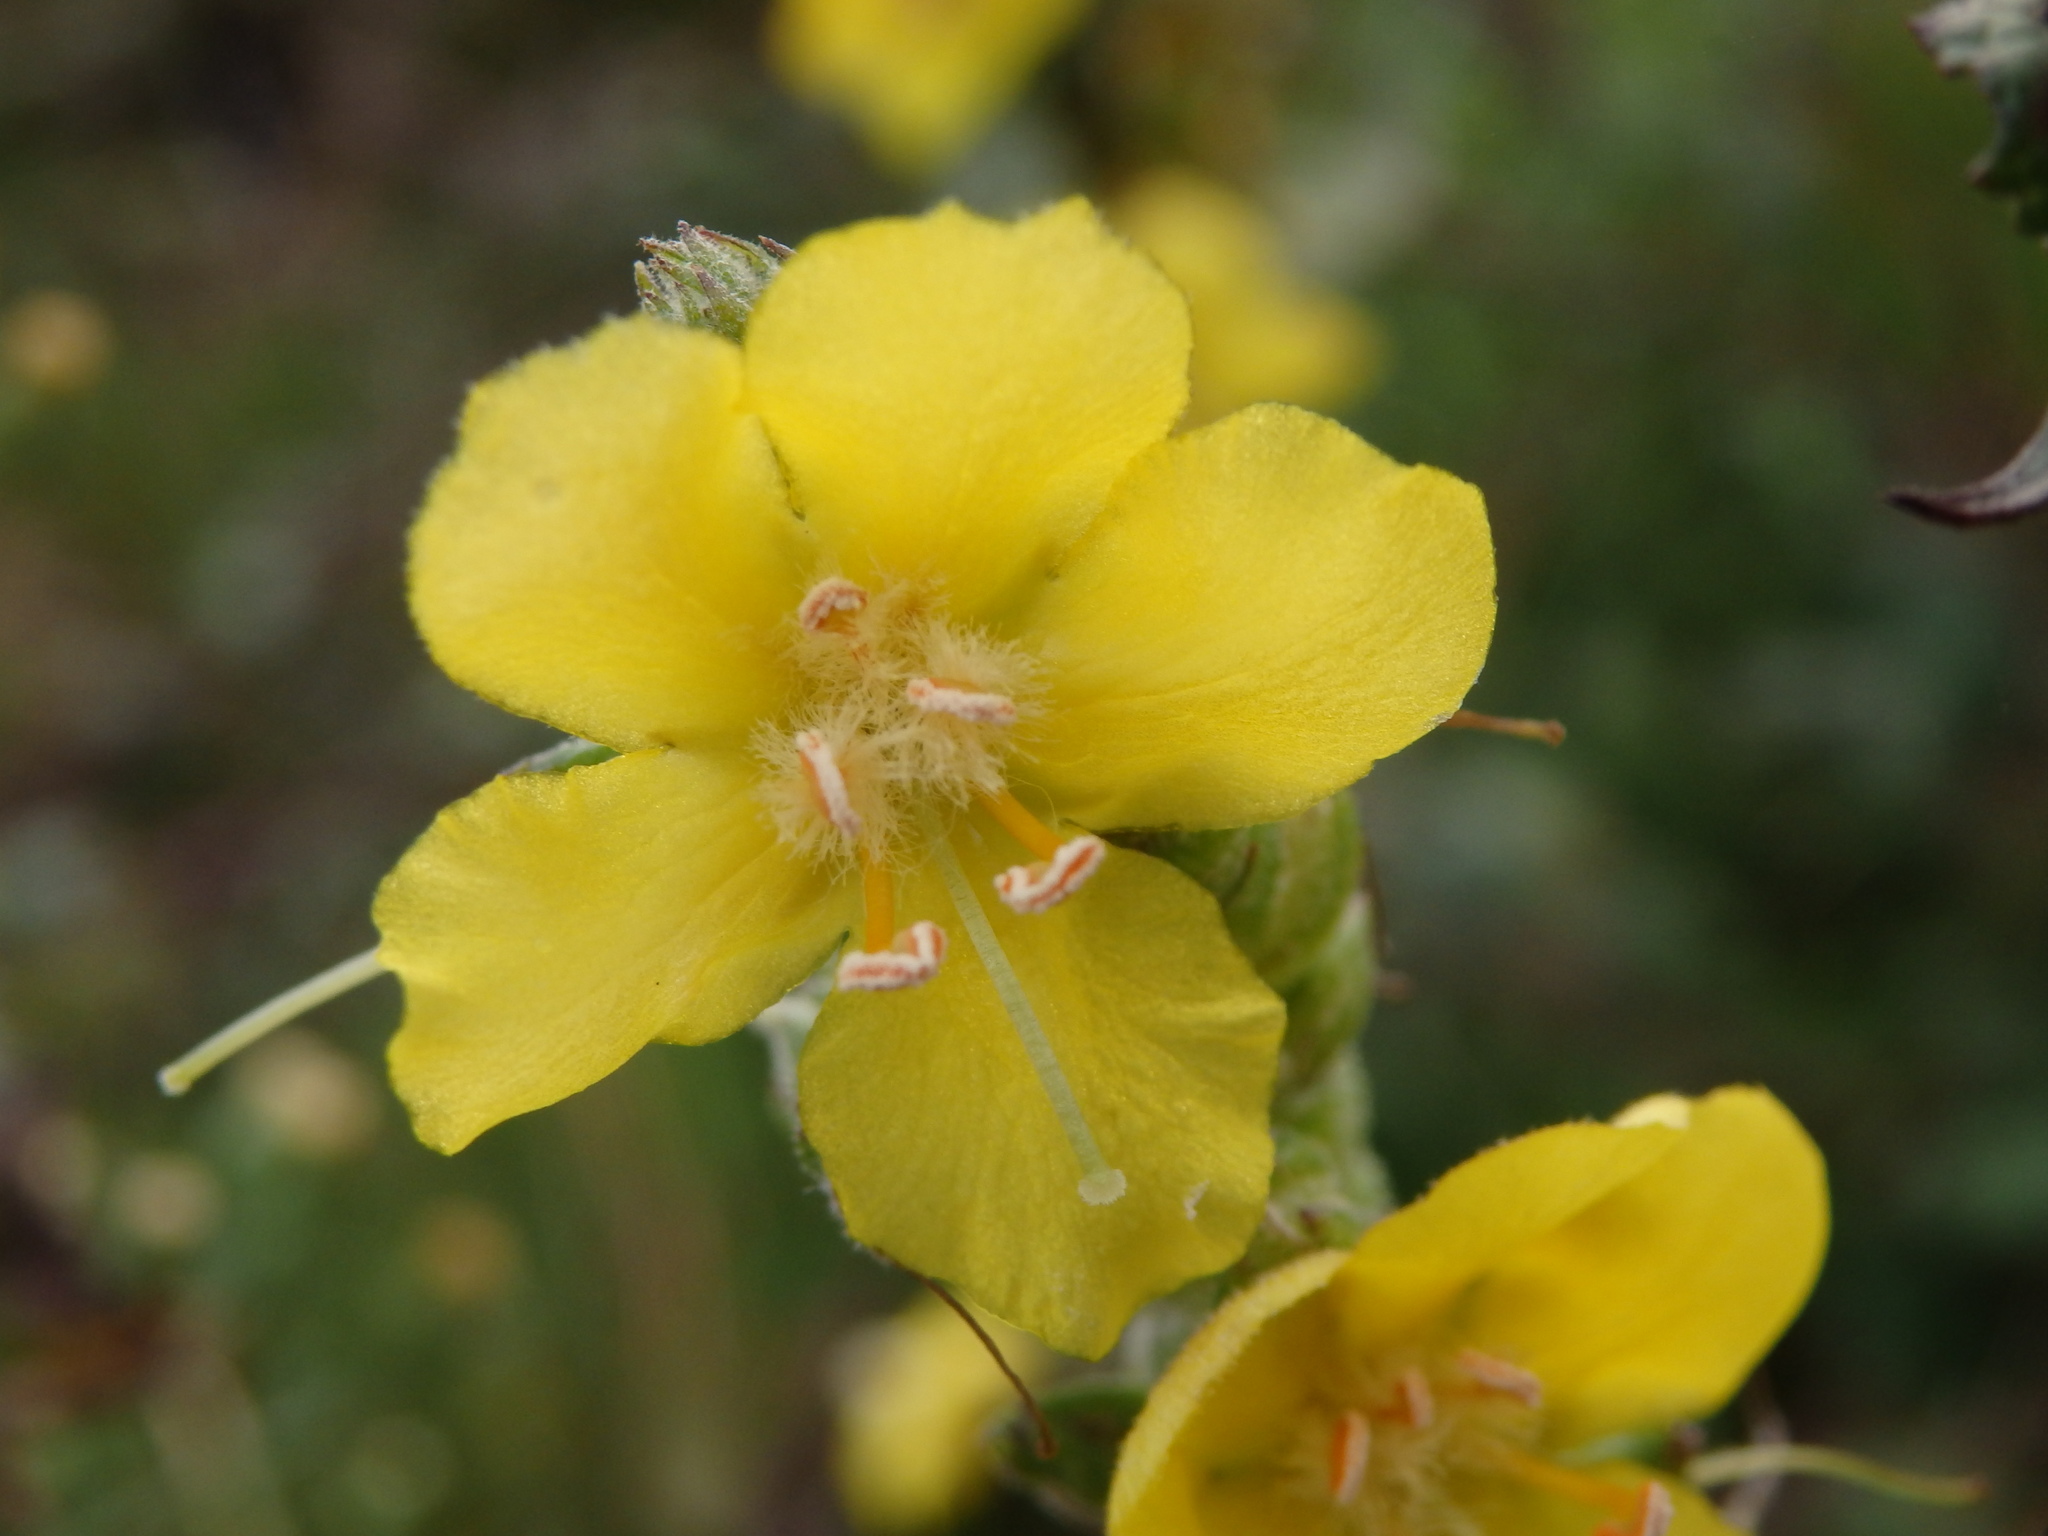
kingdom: Plantae
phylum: Tracheophyta
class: Magnoliopsida
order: Lamiales
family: Scrophulariaceae
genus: Verbascum
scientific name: Verbascum simplex
